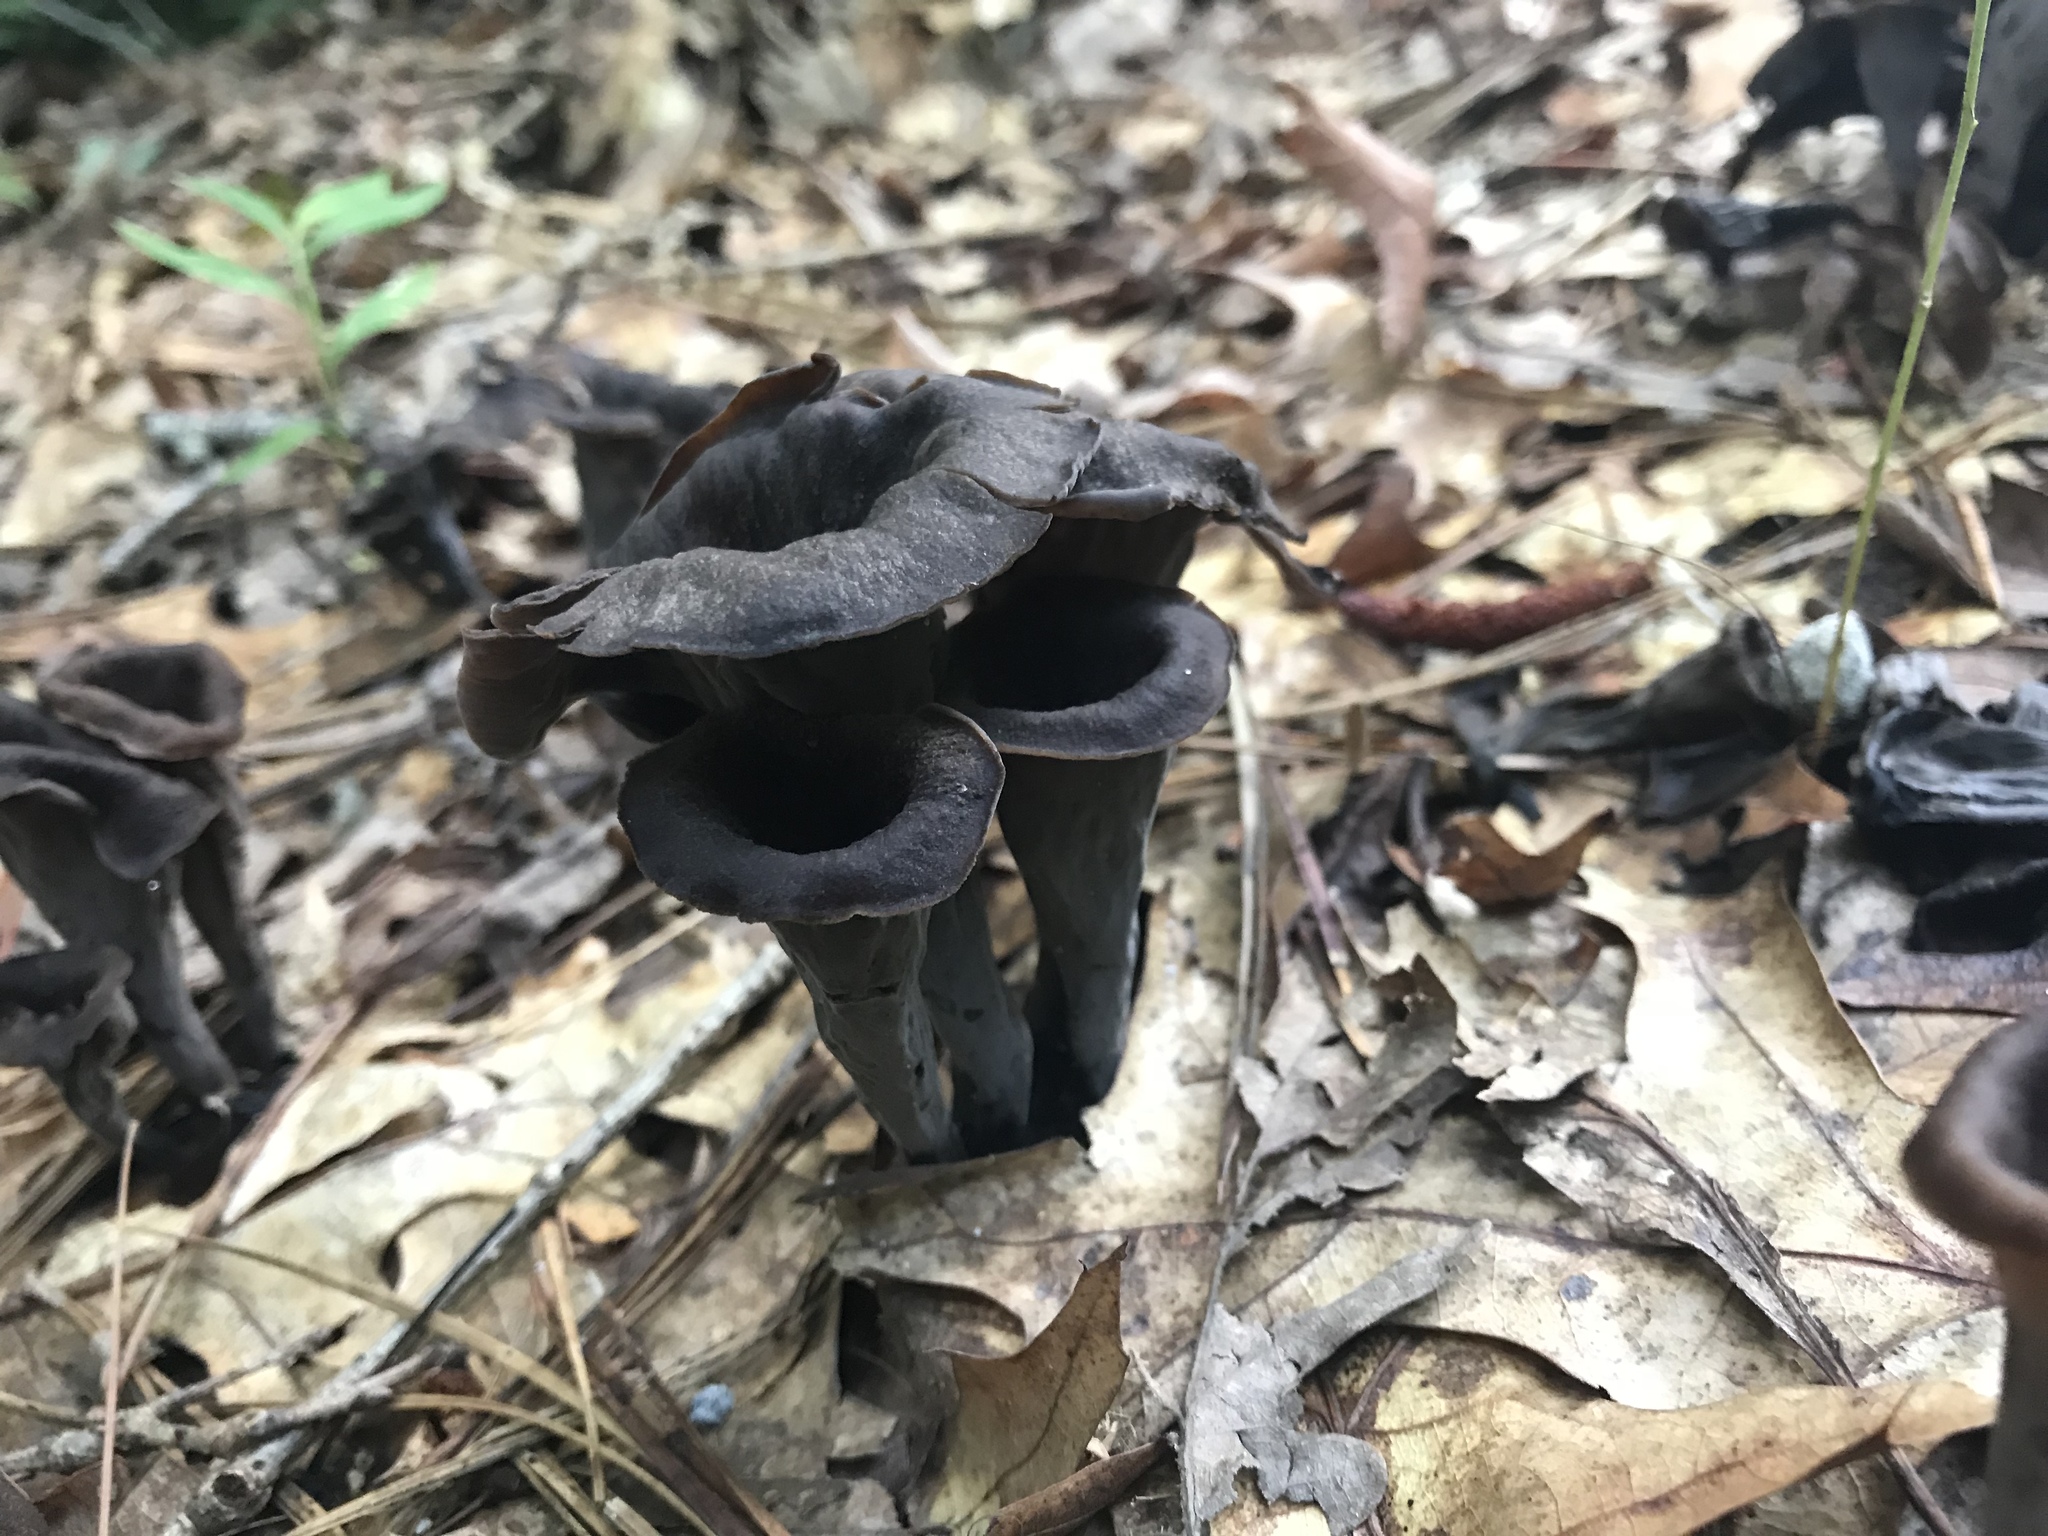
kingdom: Fungi
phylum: Basidiomycota
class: Agaricomycetes
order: Cantharellales
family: Hydnaceae
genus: Craterellus
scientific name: Craterellus cornucopioides
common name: Horn of plenty
